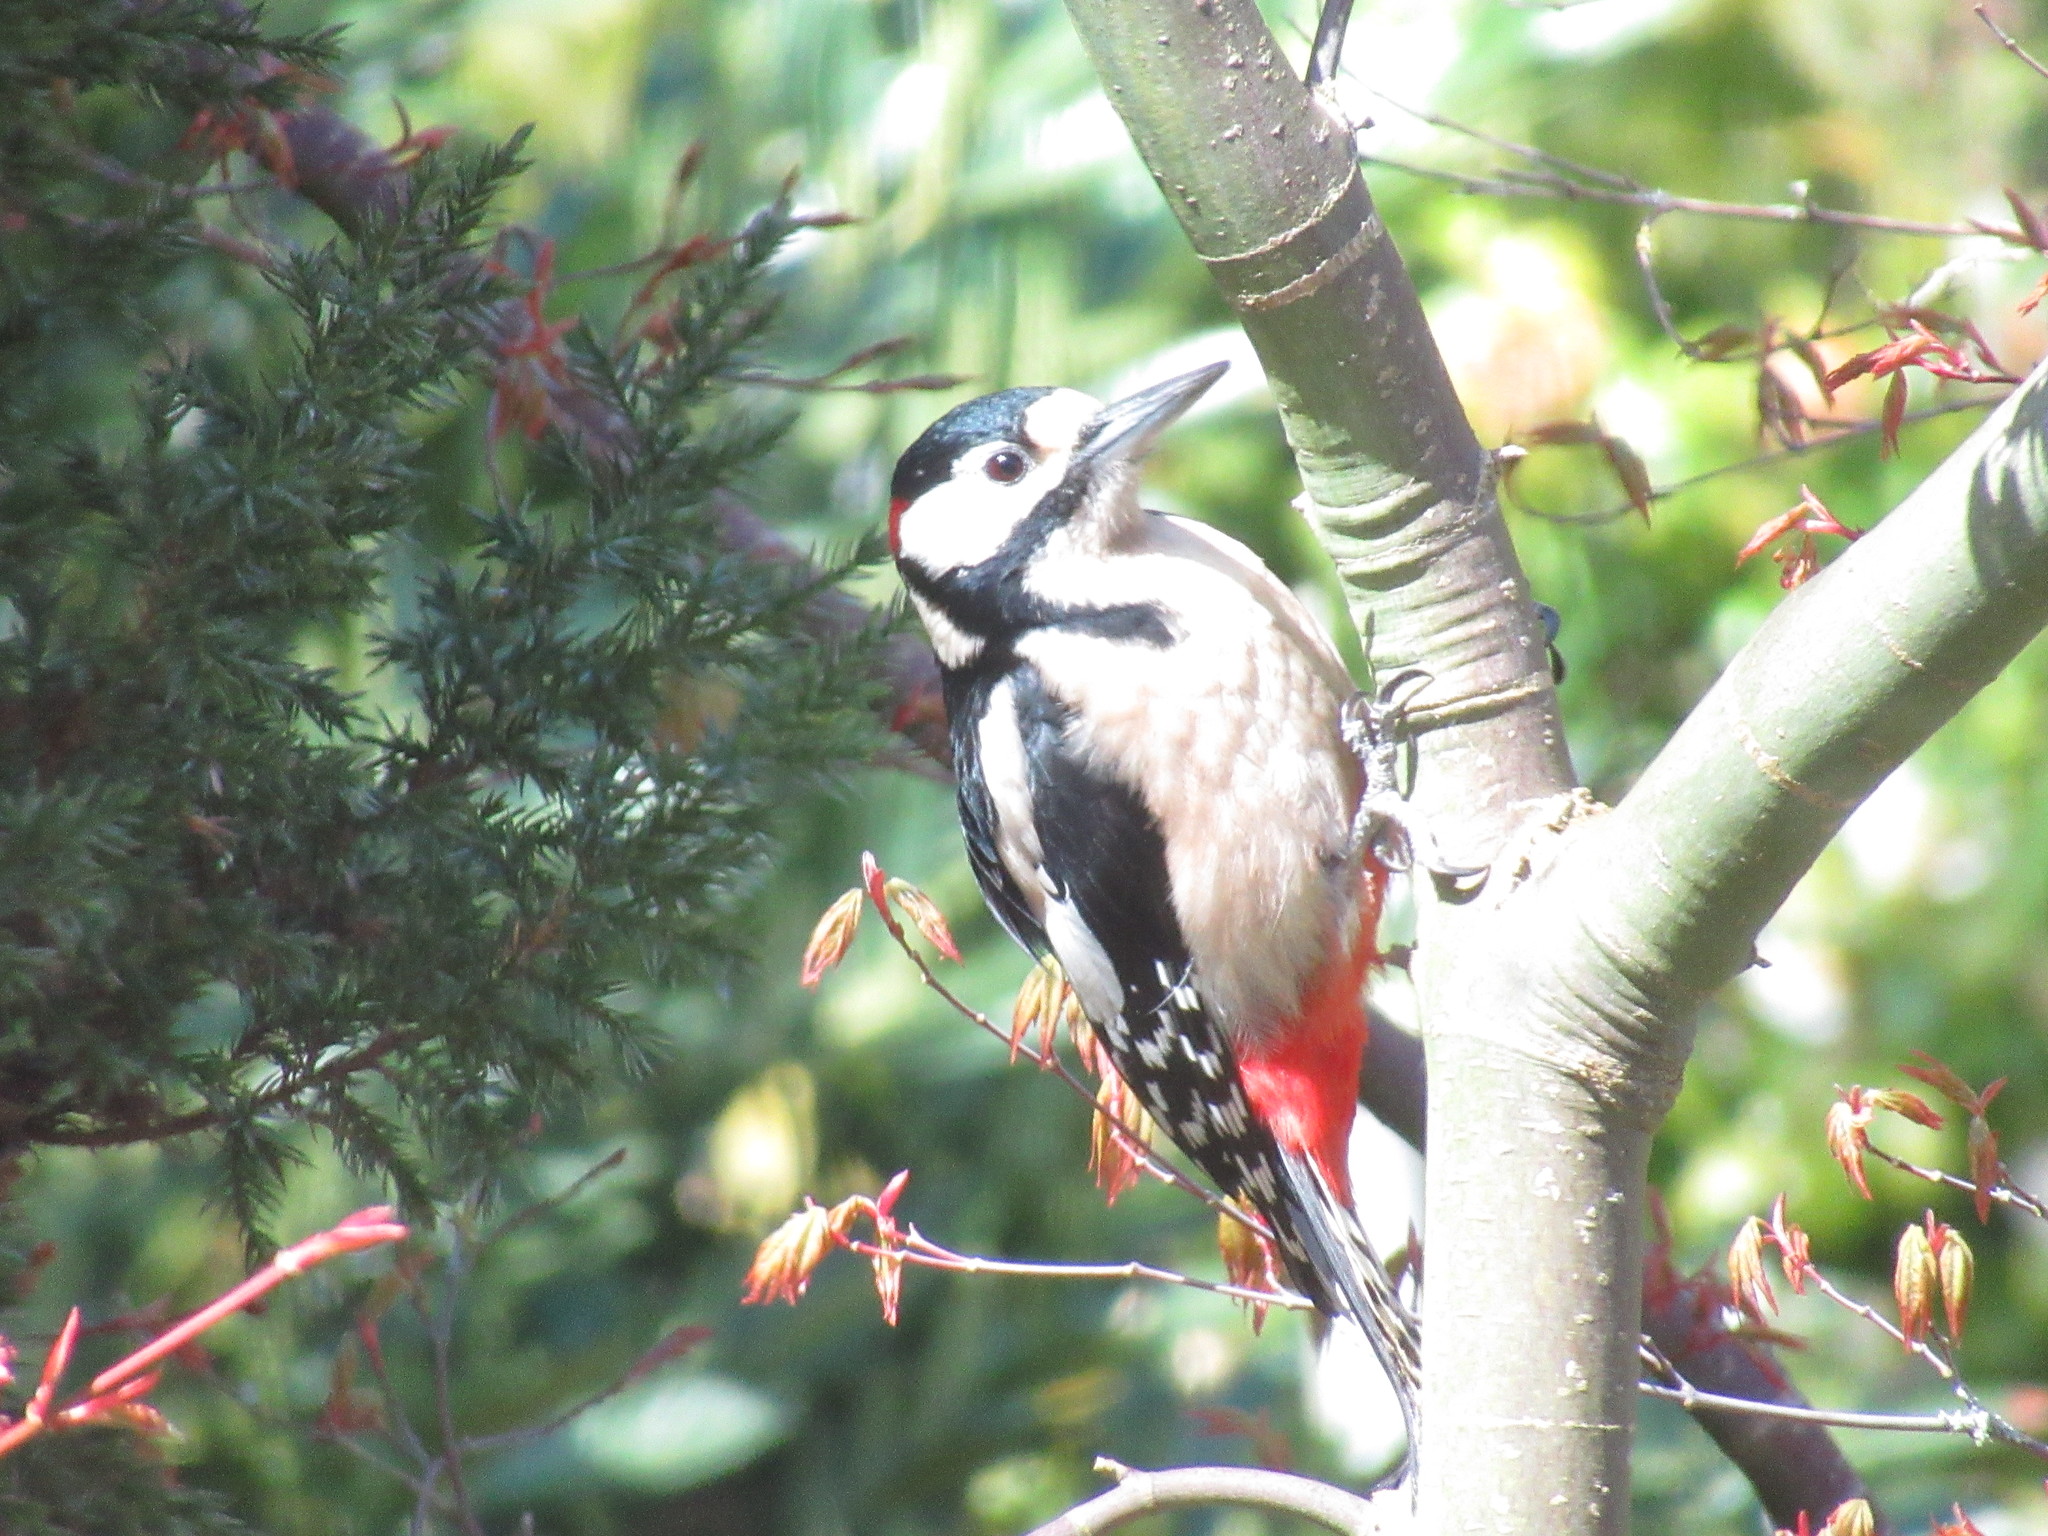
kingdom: Animalia
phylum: Chordata
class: Aves
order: Piciformes
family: Picidae
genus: Dendrocopos
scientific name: Dendrocopos major
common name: Great spotted woodpecker
